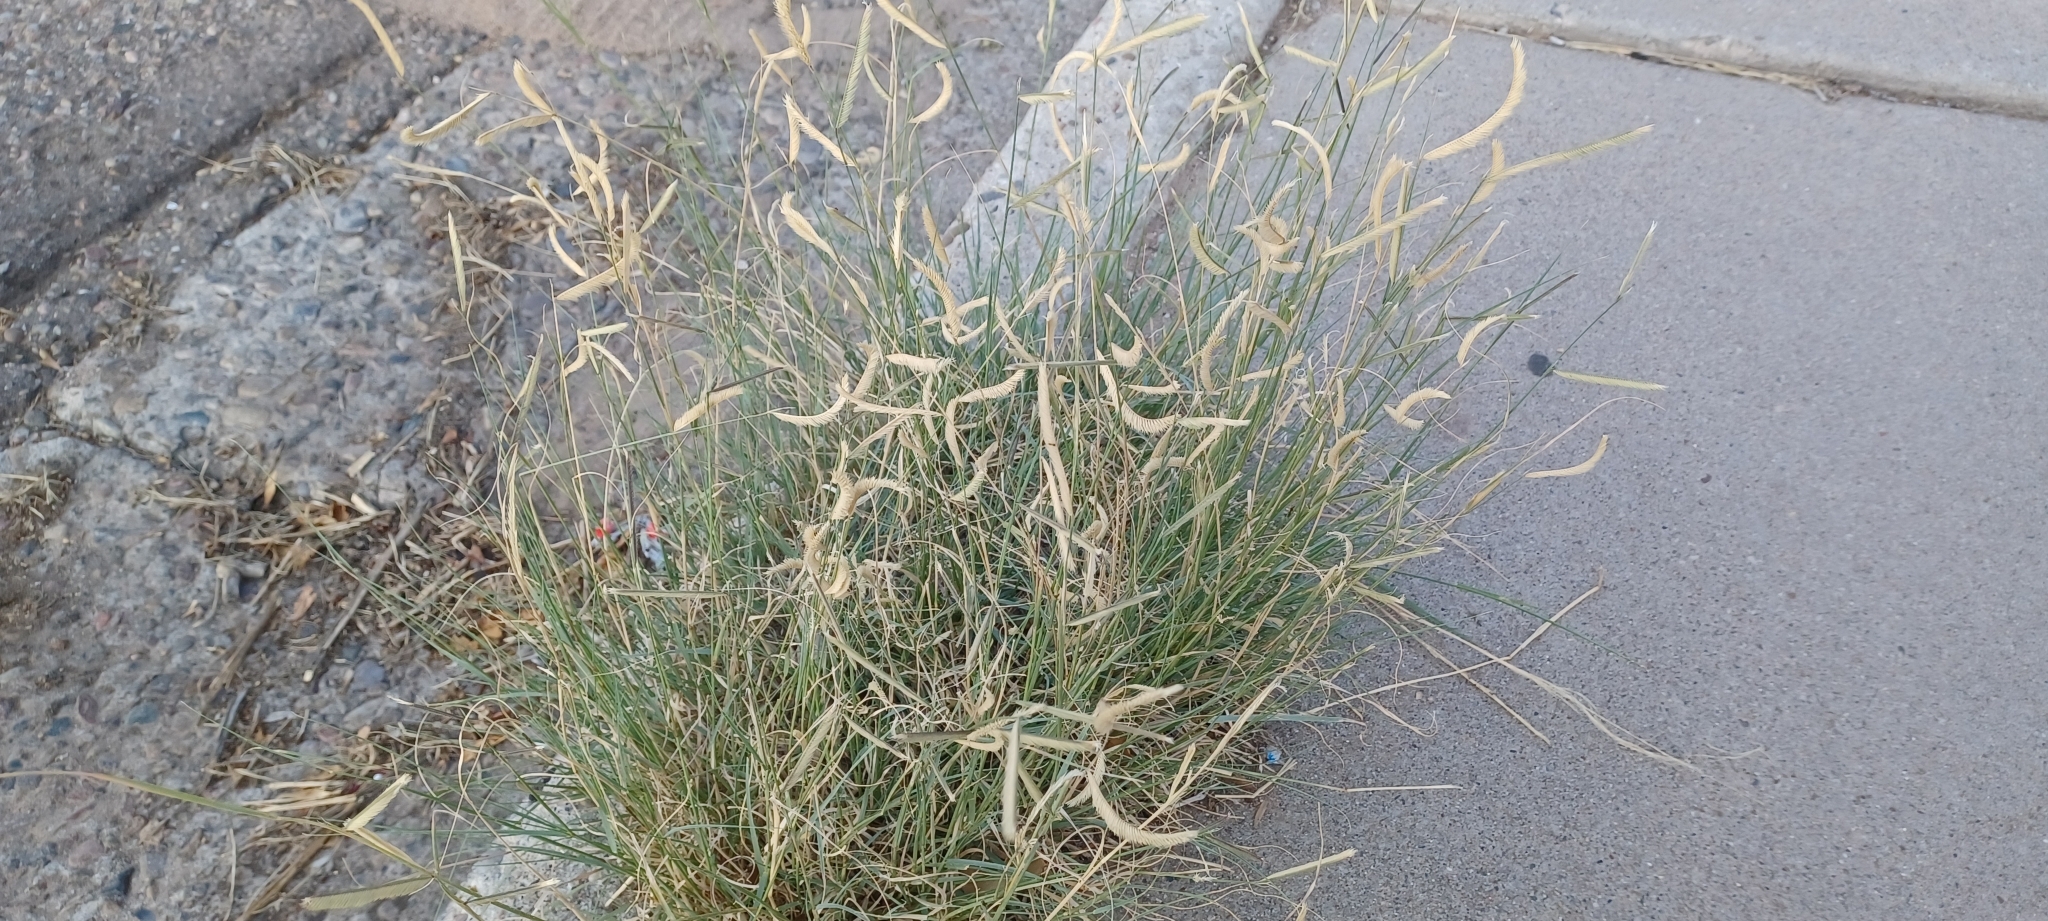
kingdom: Plantae
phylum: Tracheophyta
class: Liliopsida
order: Poales
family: Poaceae
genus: Bouteloua
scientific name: Bouteloua gracilis
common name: Blue grama
